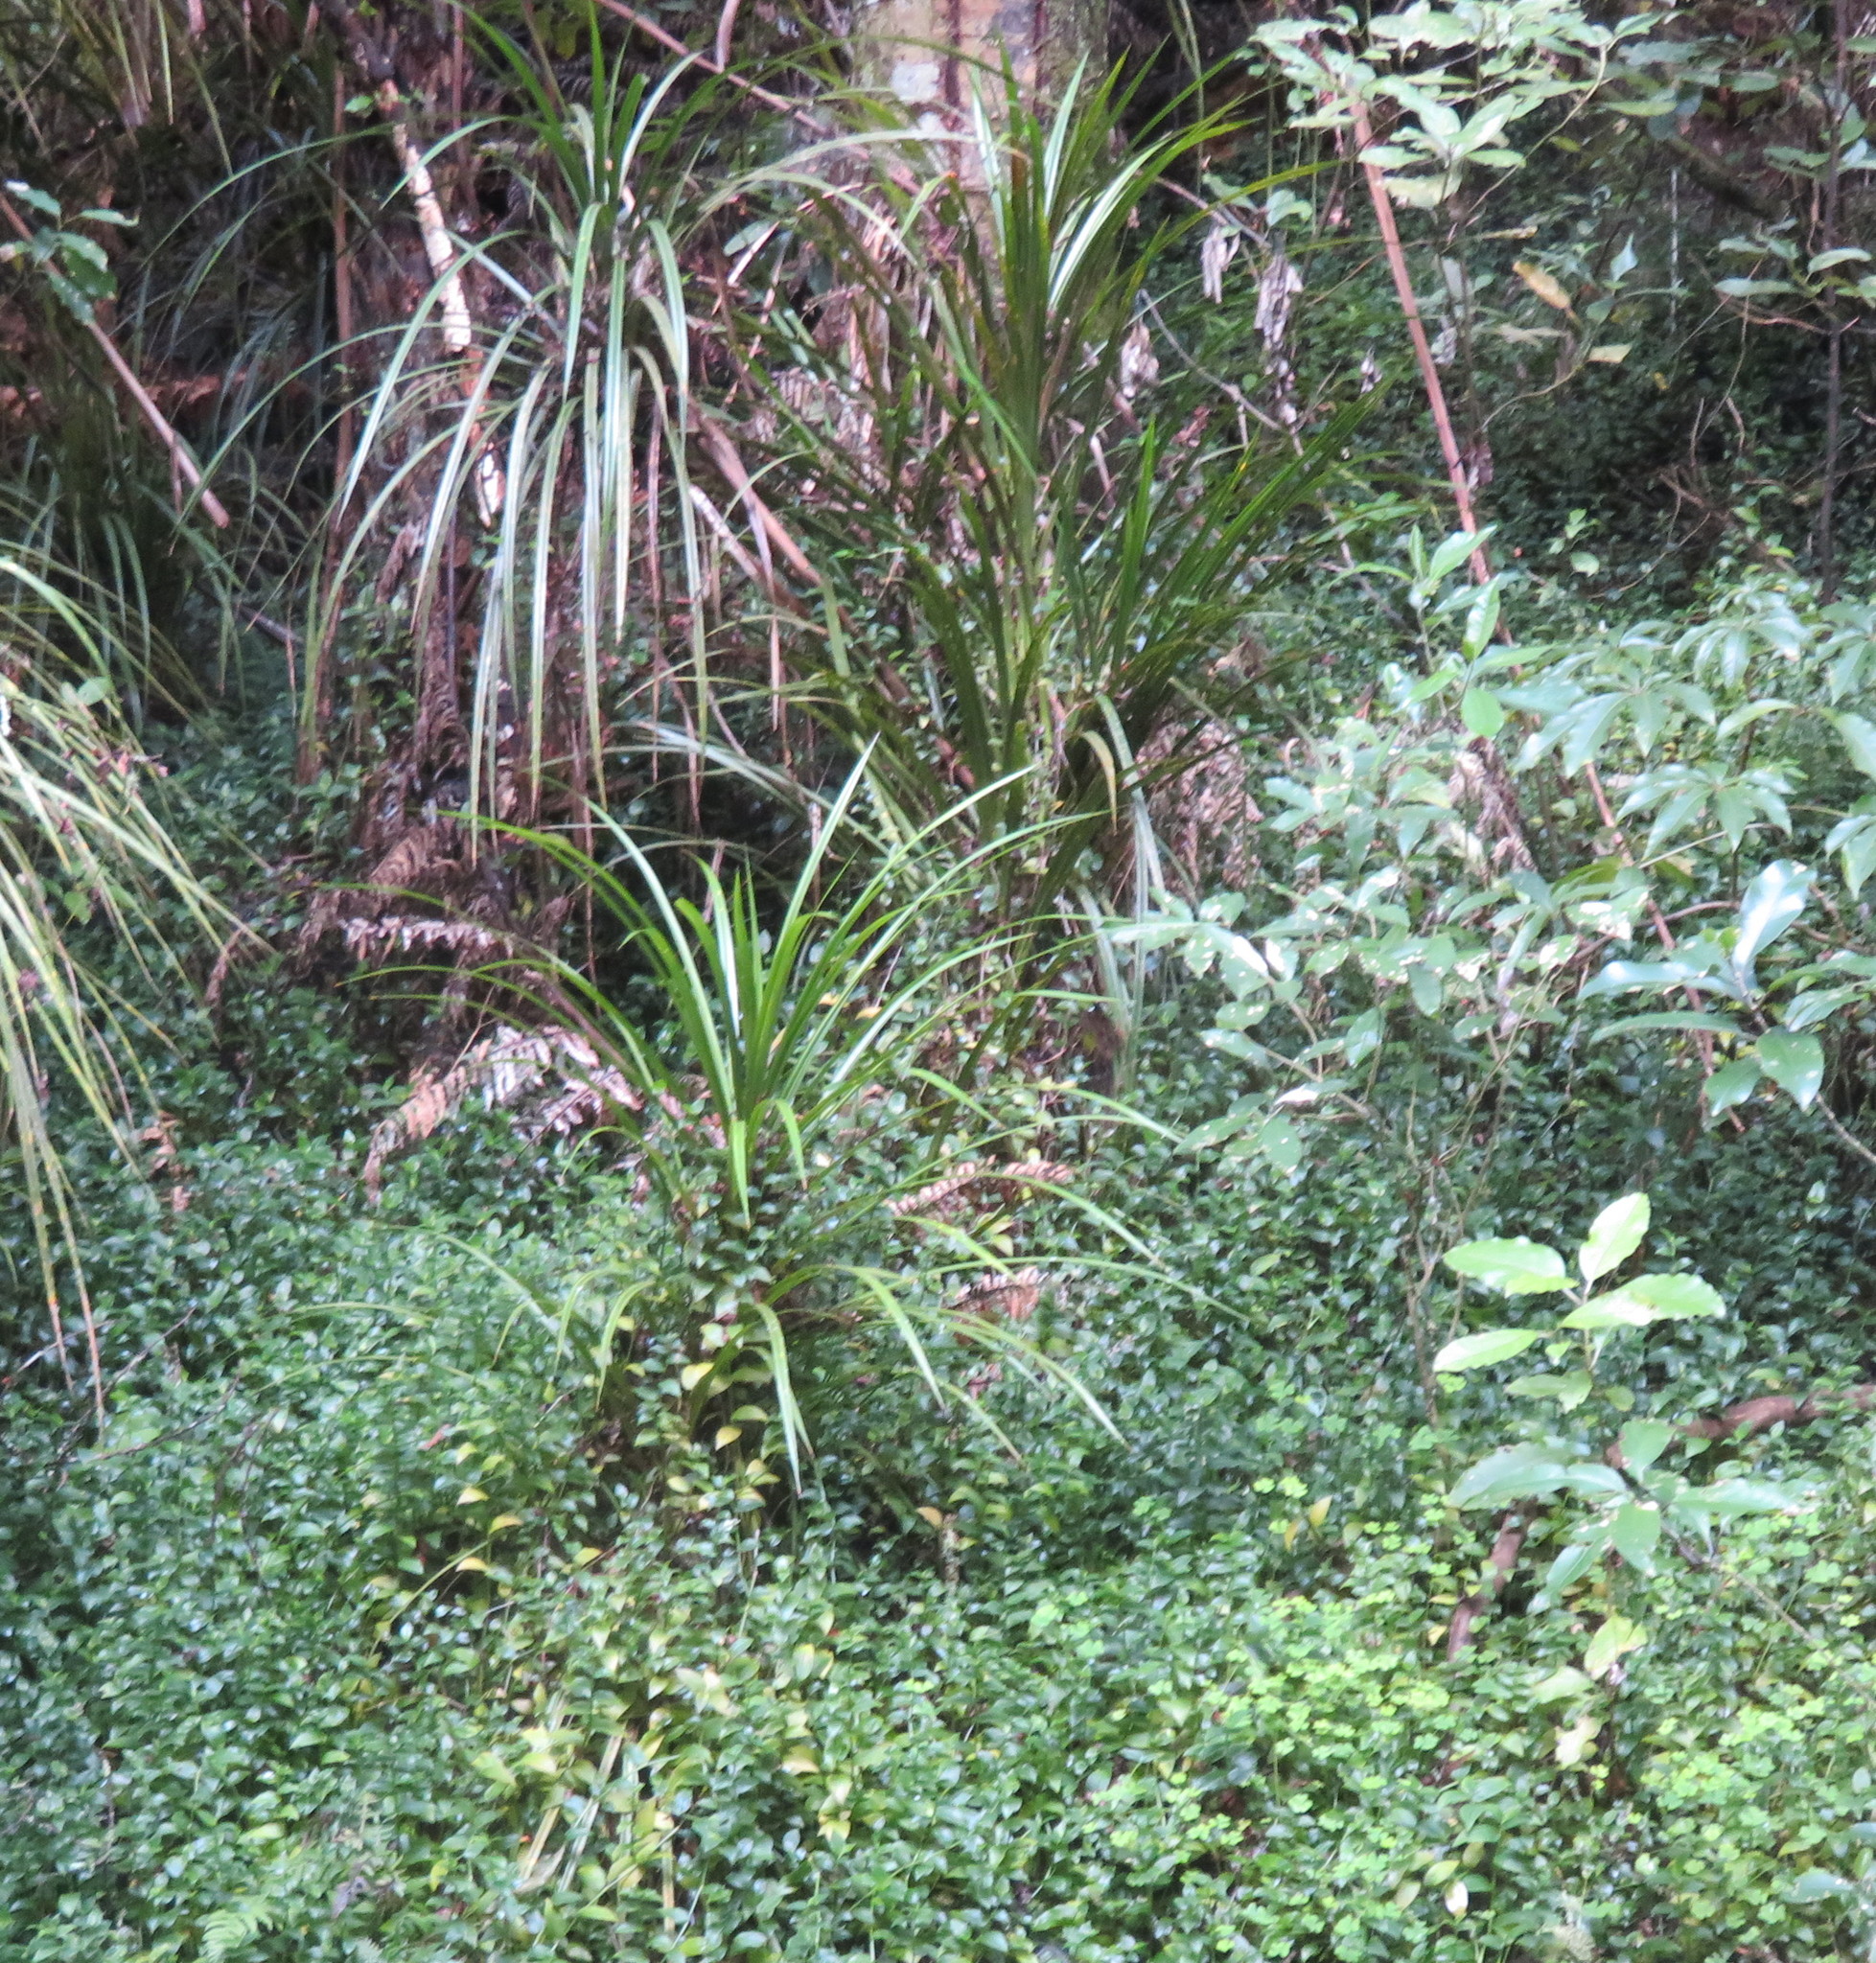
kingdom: Plantae
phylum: Tracheophyta
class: Pinopsida
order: Pinales
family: Phyllocladaceae
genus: Phyllocladus
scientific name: Phyllocladus trichomanoides
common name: Celery pine
